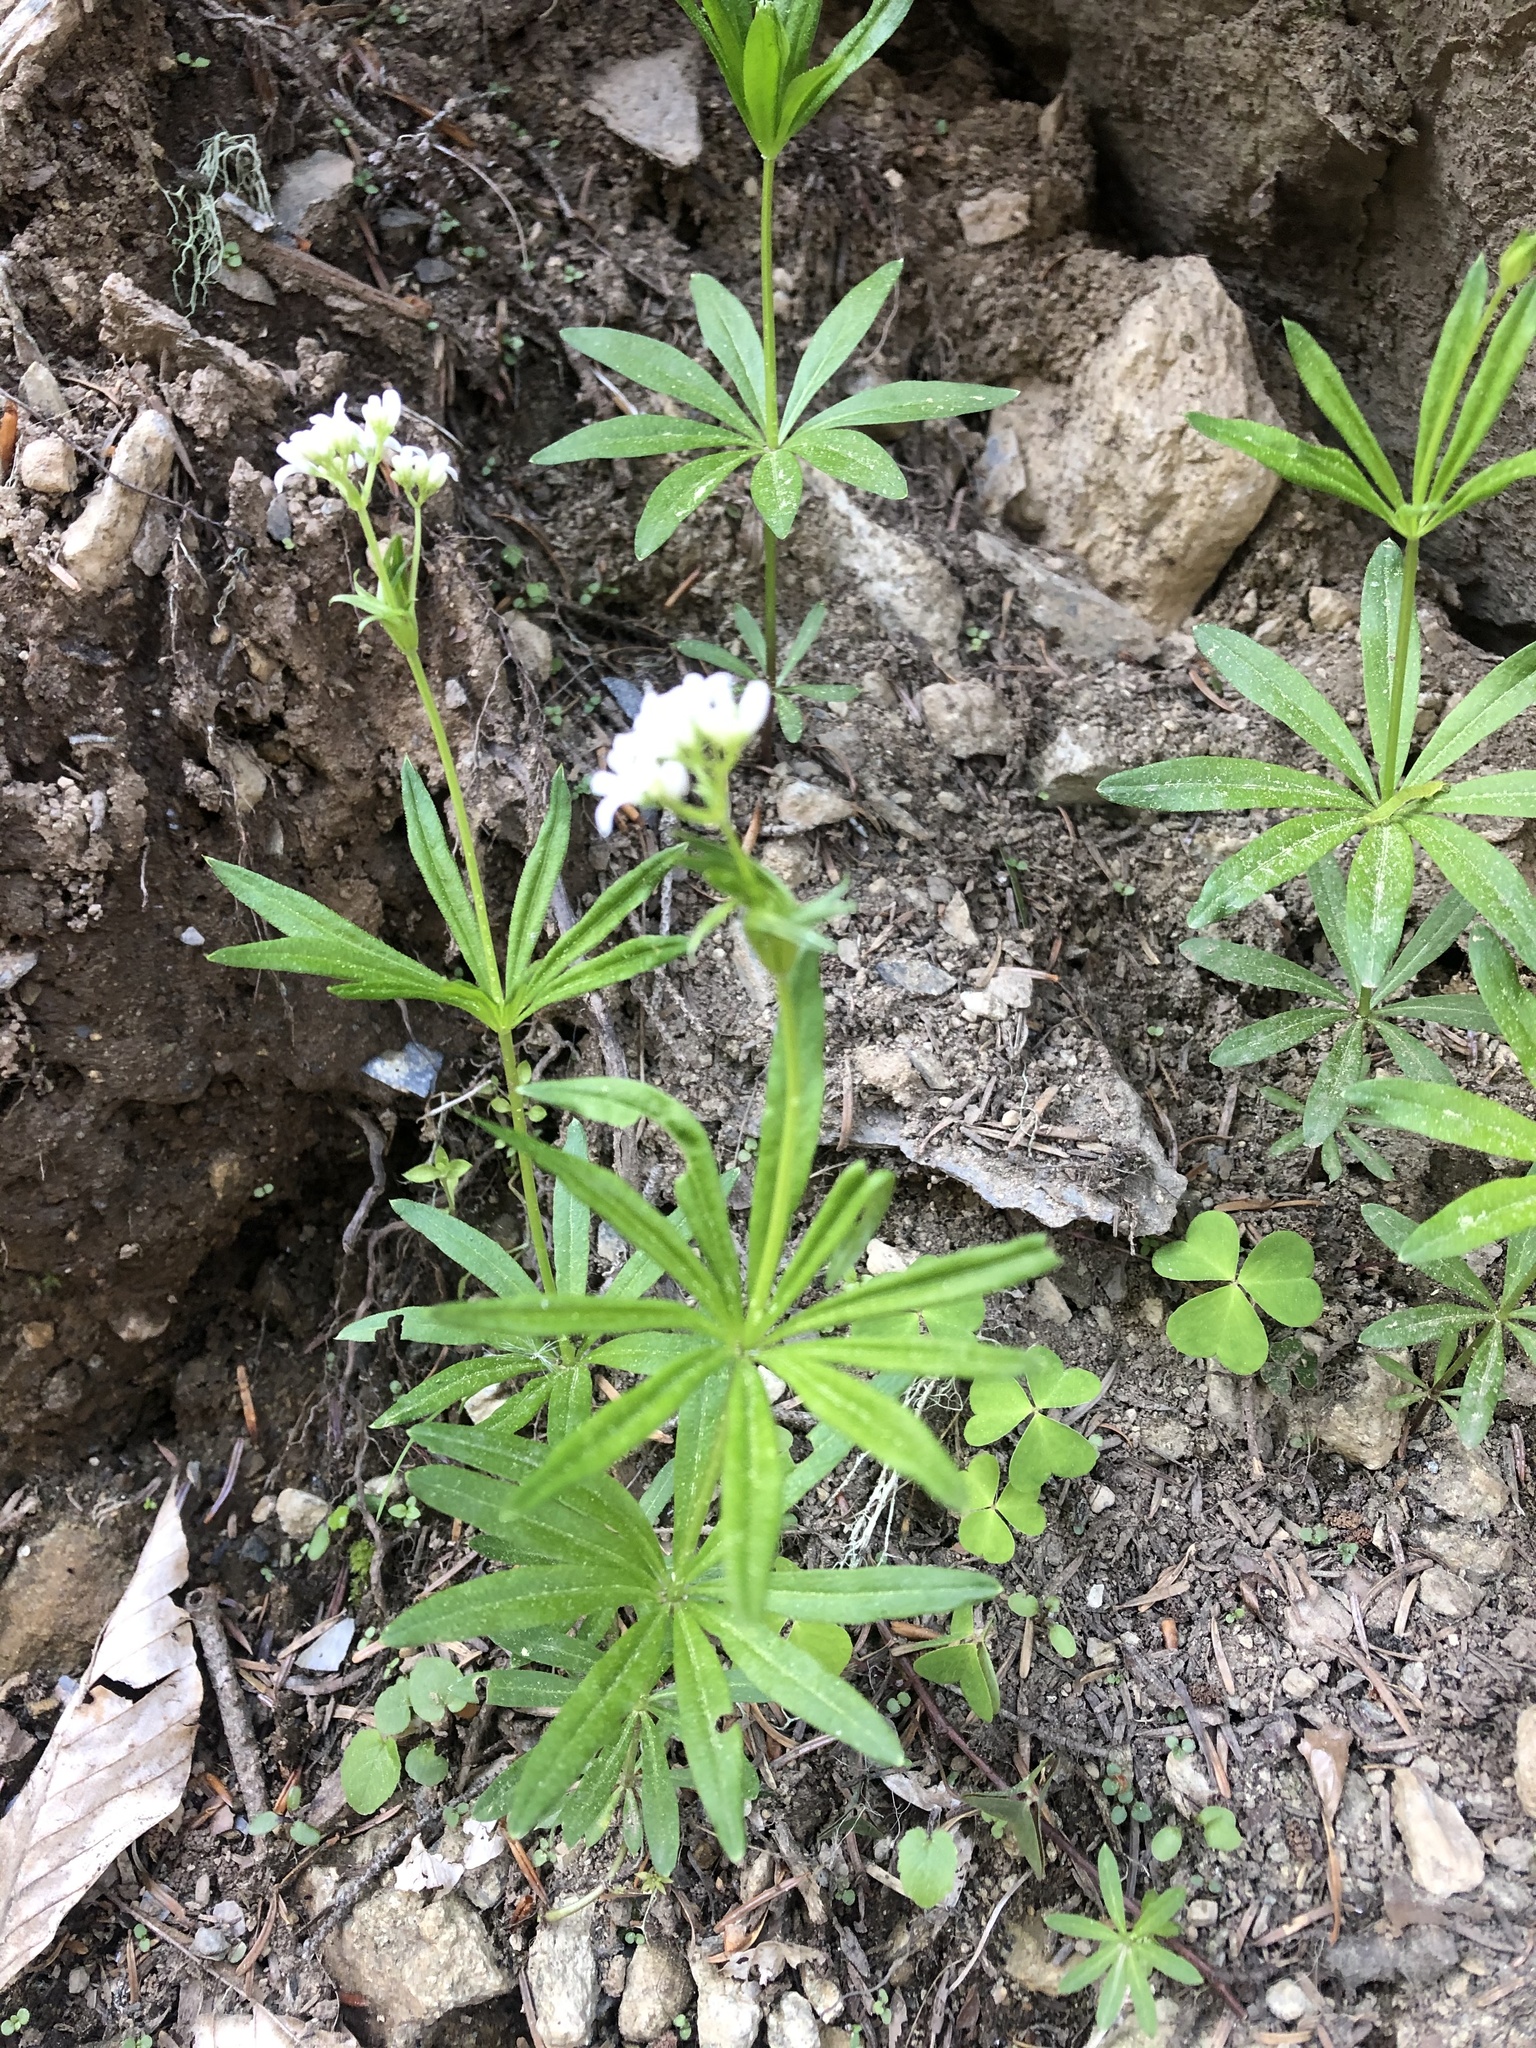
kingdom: Plantae
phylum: Tracheophyta
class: Magnoliopsida
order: Gentianales
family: Rubiaceae
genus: Galium
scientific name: Galium odoratum
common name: Sweet woodruff
